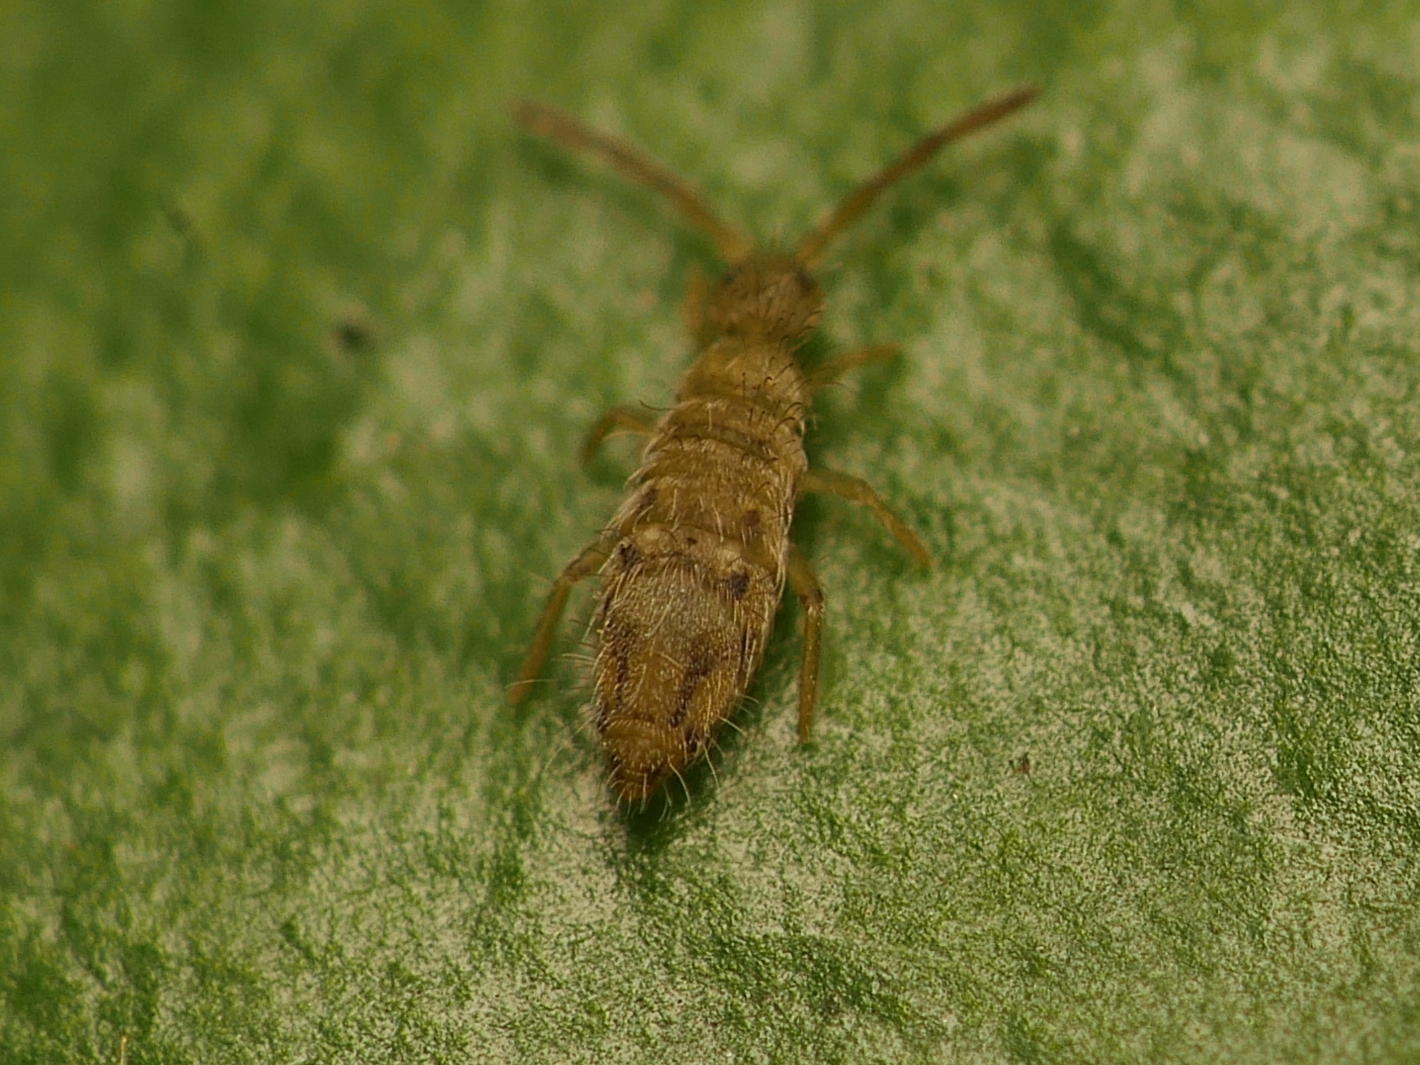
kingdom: Animalia
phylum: Arthropoda
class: Collembola
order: Entomobryomorpha
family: Entomobryidae
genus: Entomobrya
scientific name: Entomobrya nivalis
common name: Cosmopolitan springtail
